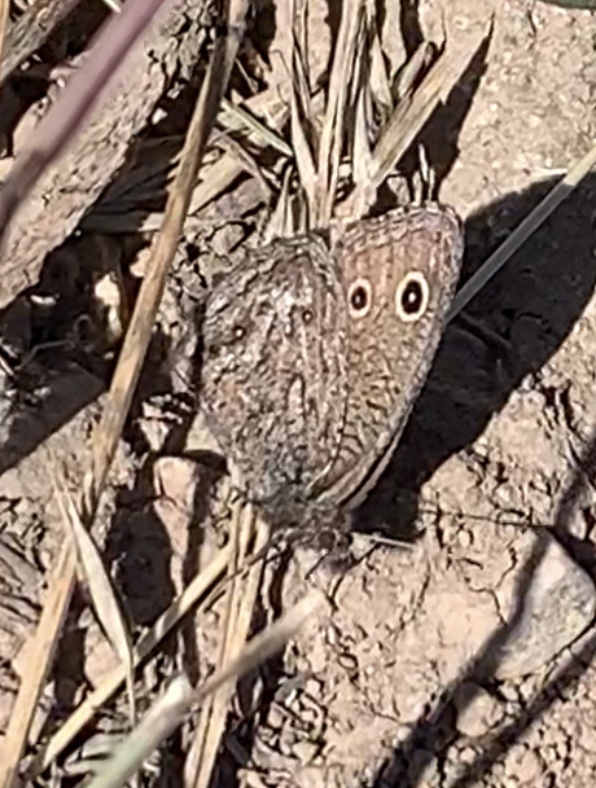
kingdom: Animalia
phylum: Arthropoda
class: Insecta
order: Lepidoptera
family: Nymphalidae
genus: Cercyonis
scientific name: Cercyonis oetus
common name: Small wood-nymph
